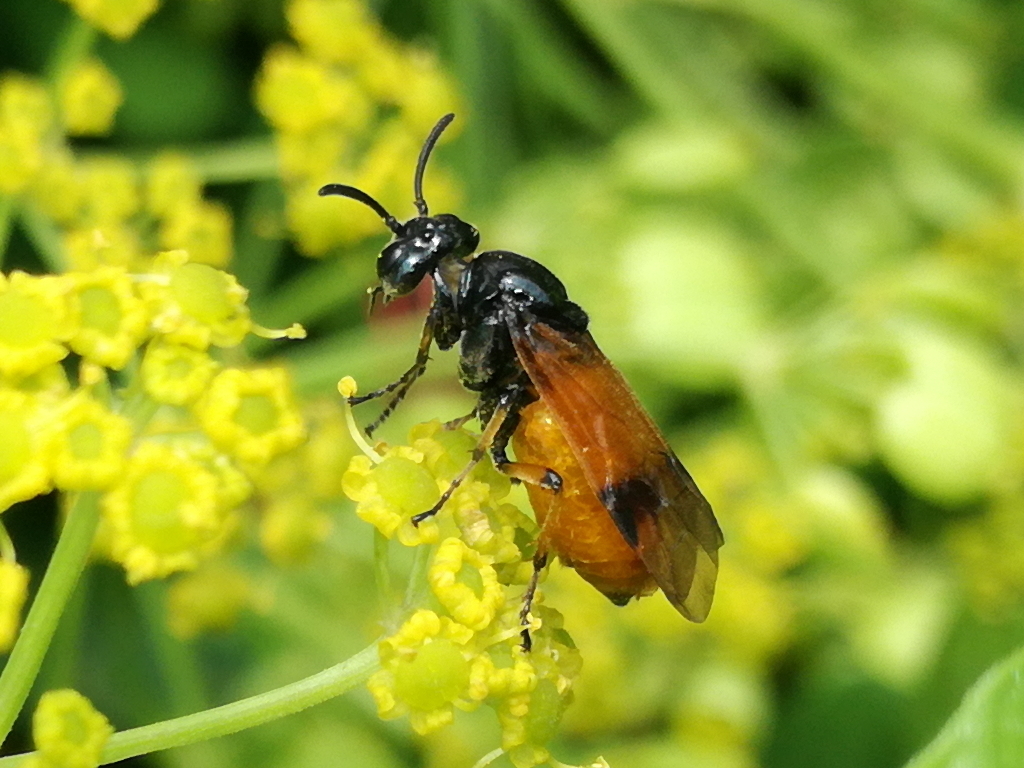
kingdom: Animalia
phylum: Arthropoda
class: Insecta
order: Hymenoptera
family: Argidae
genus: Arge
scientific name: Arge cyanocrocea
